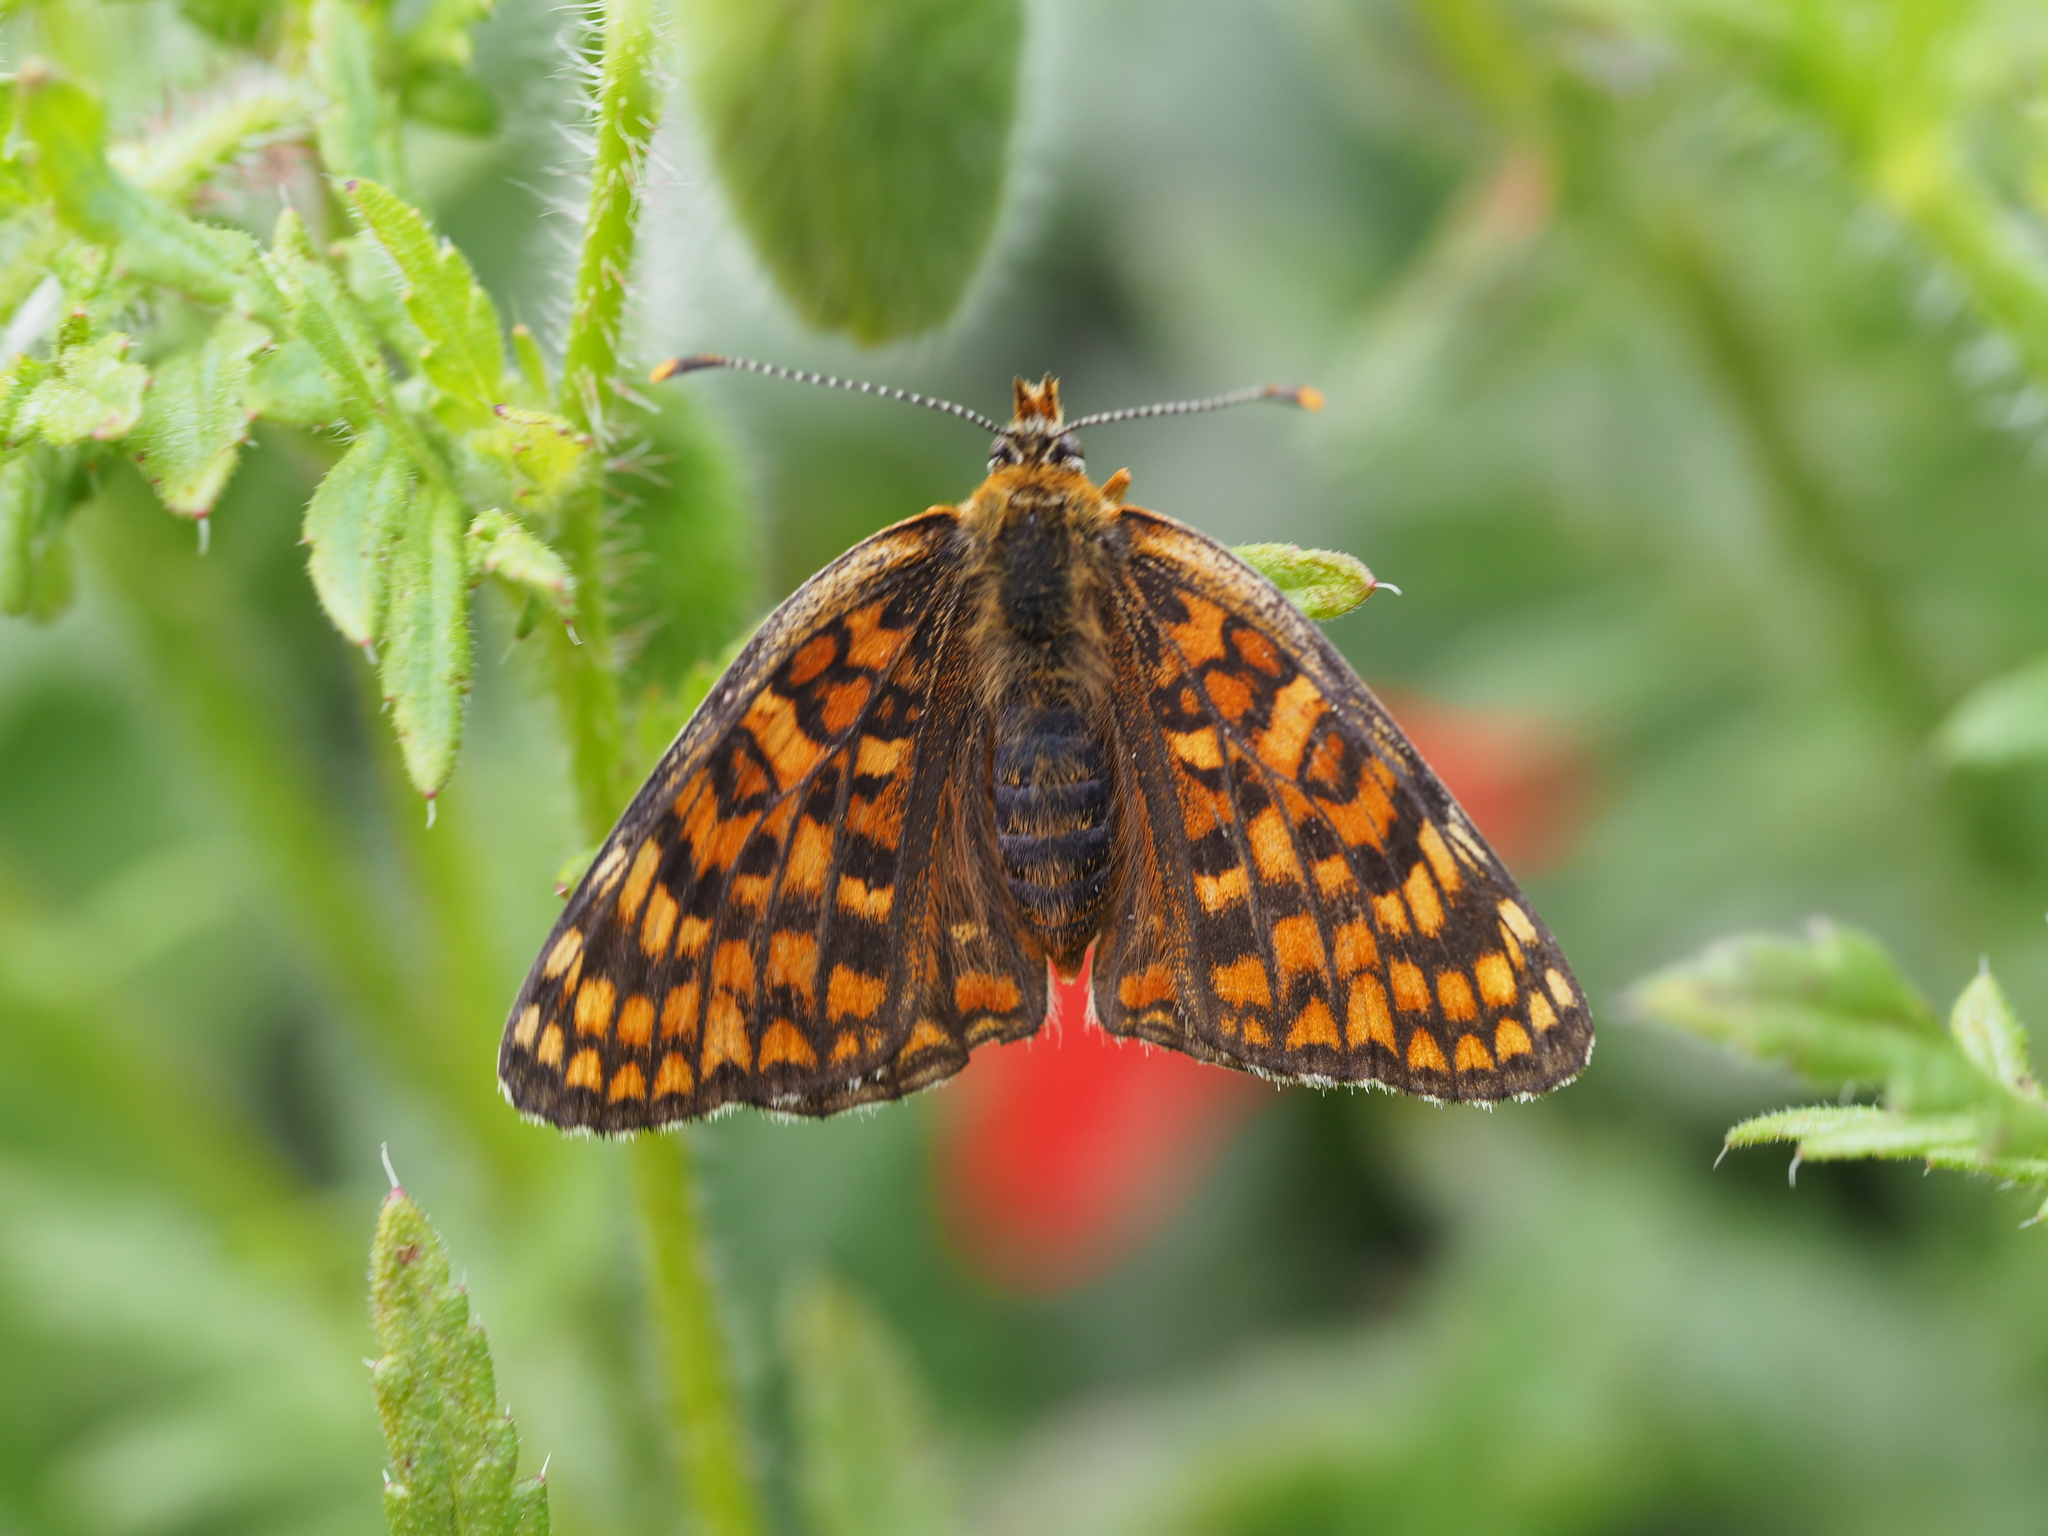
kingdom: Animalia
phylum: Arthropoda
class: Insecta
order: Lepidoptera
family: Nymphalidae
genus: Melitaea
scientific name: Melitaea phoebe
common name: Knapweed fritillary
